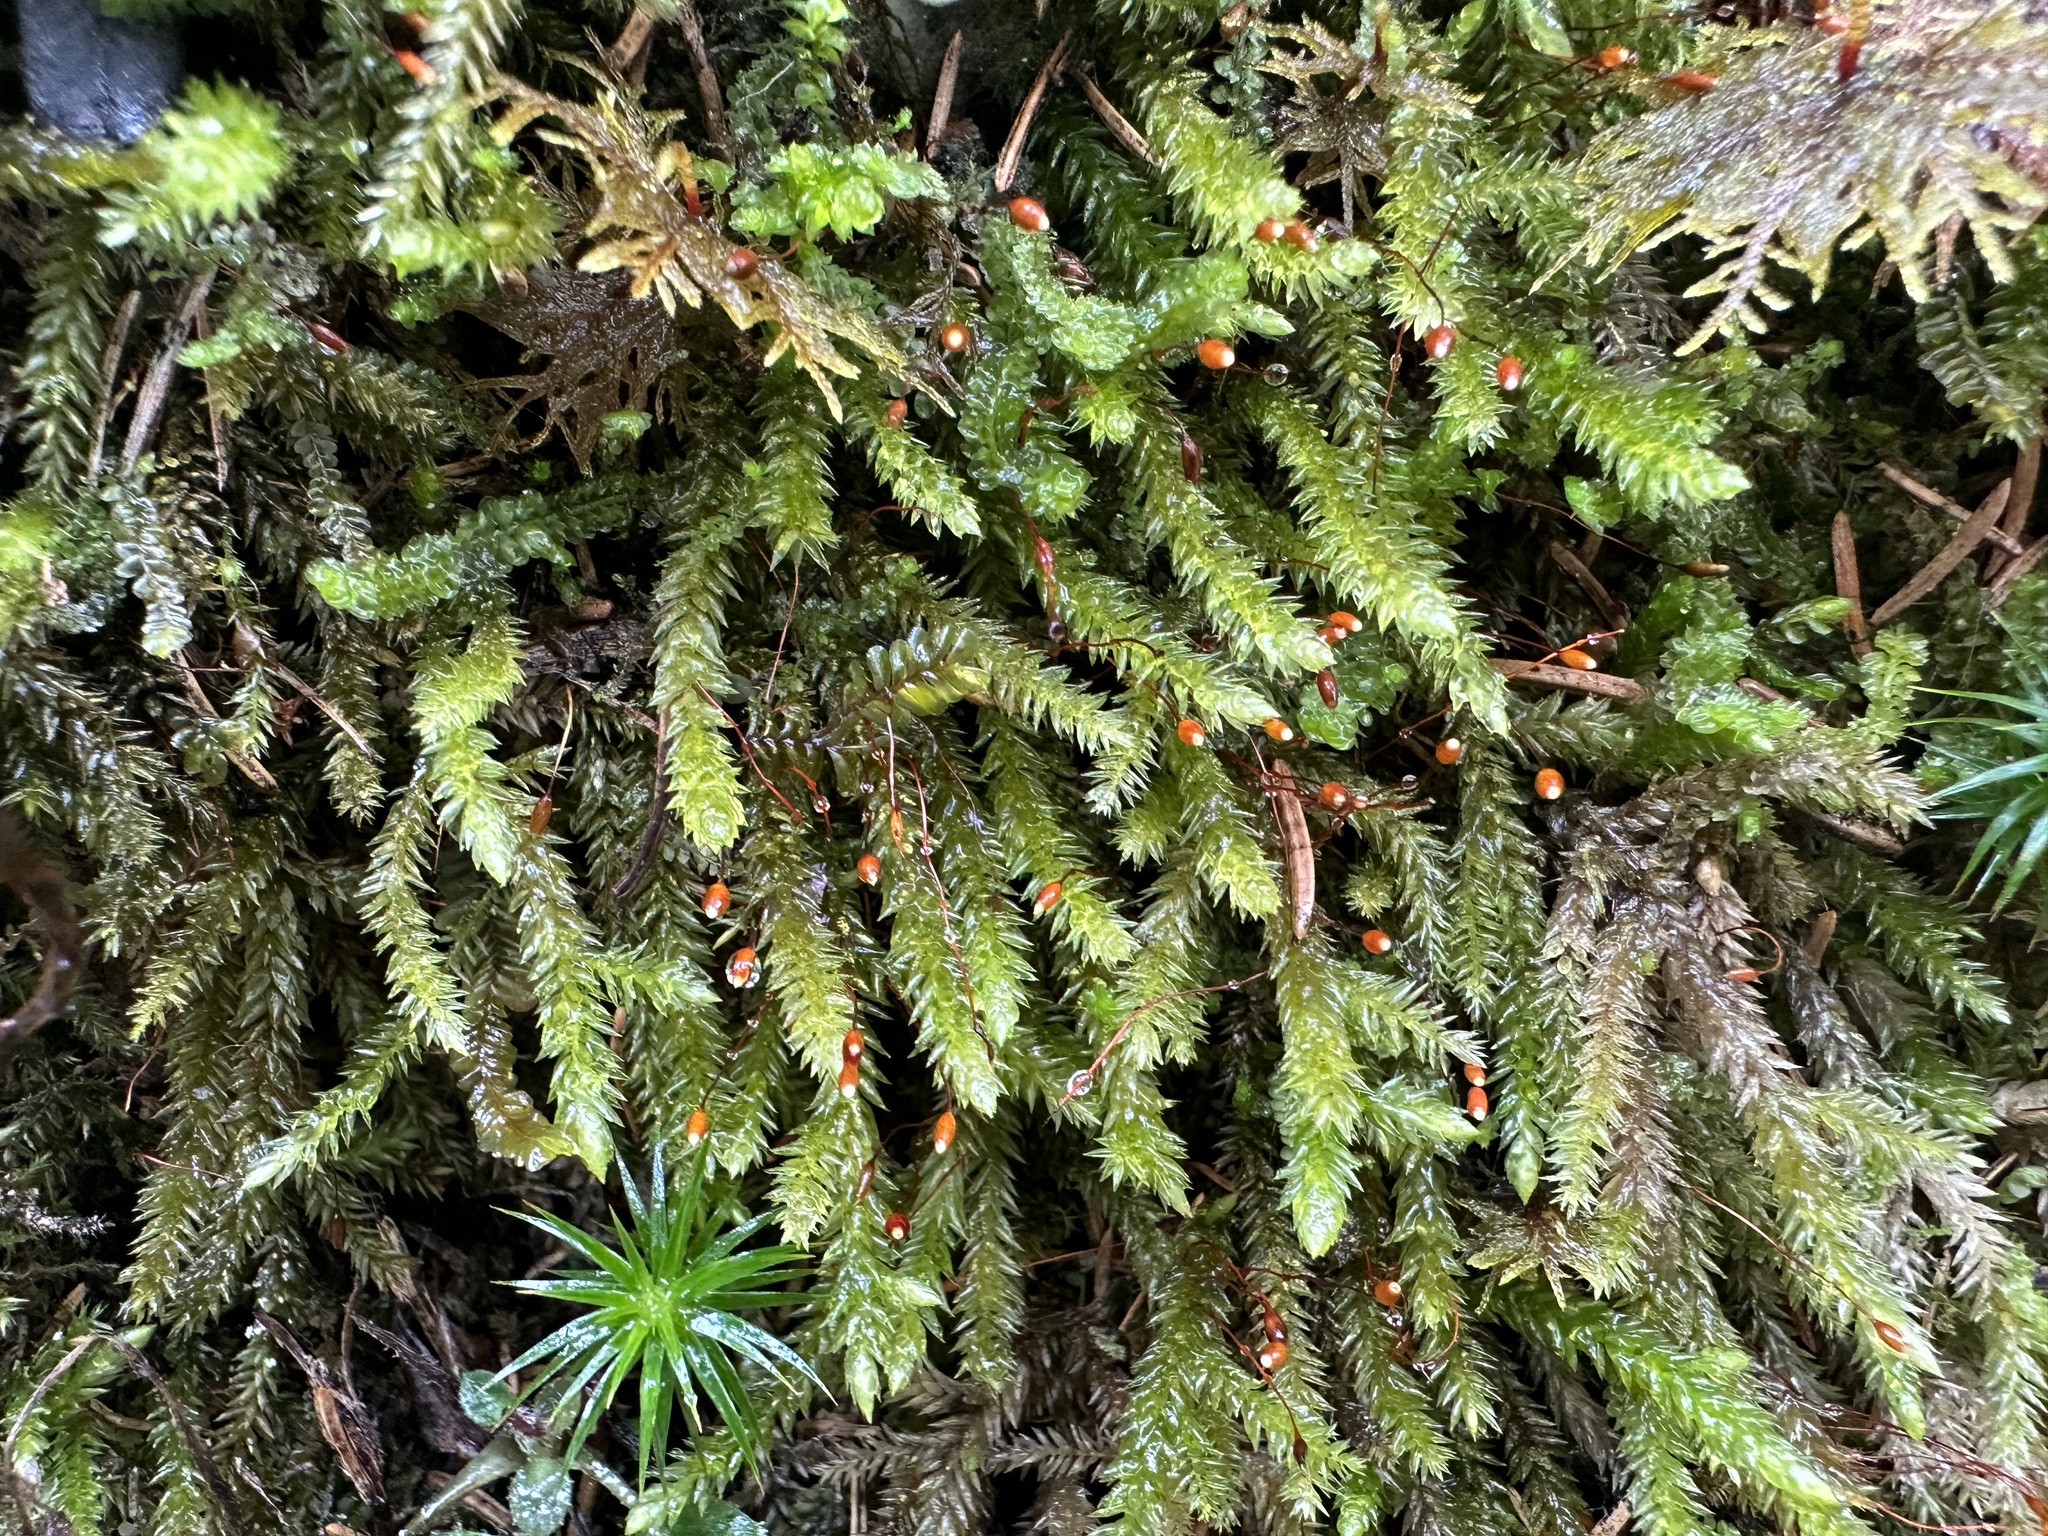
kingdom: Plantae
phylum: Bryophyta
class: Bryopsida
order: Hypnales
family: Leucodontaceae
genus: Leucodon
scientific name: Leucodon sciuroides
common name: Squirrel-tail moss
